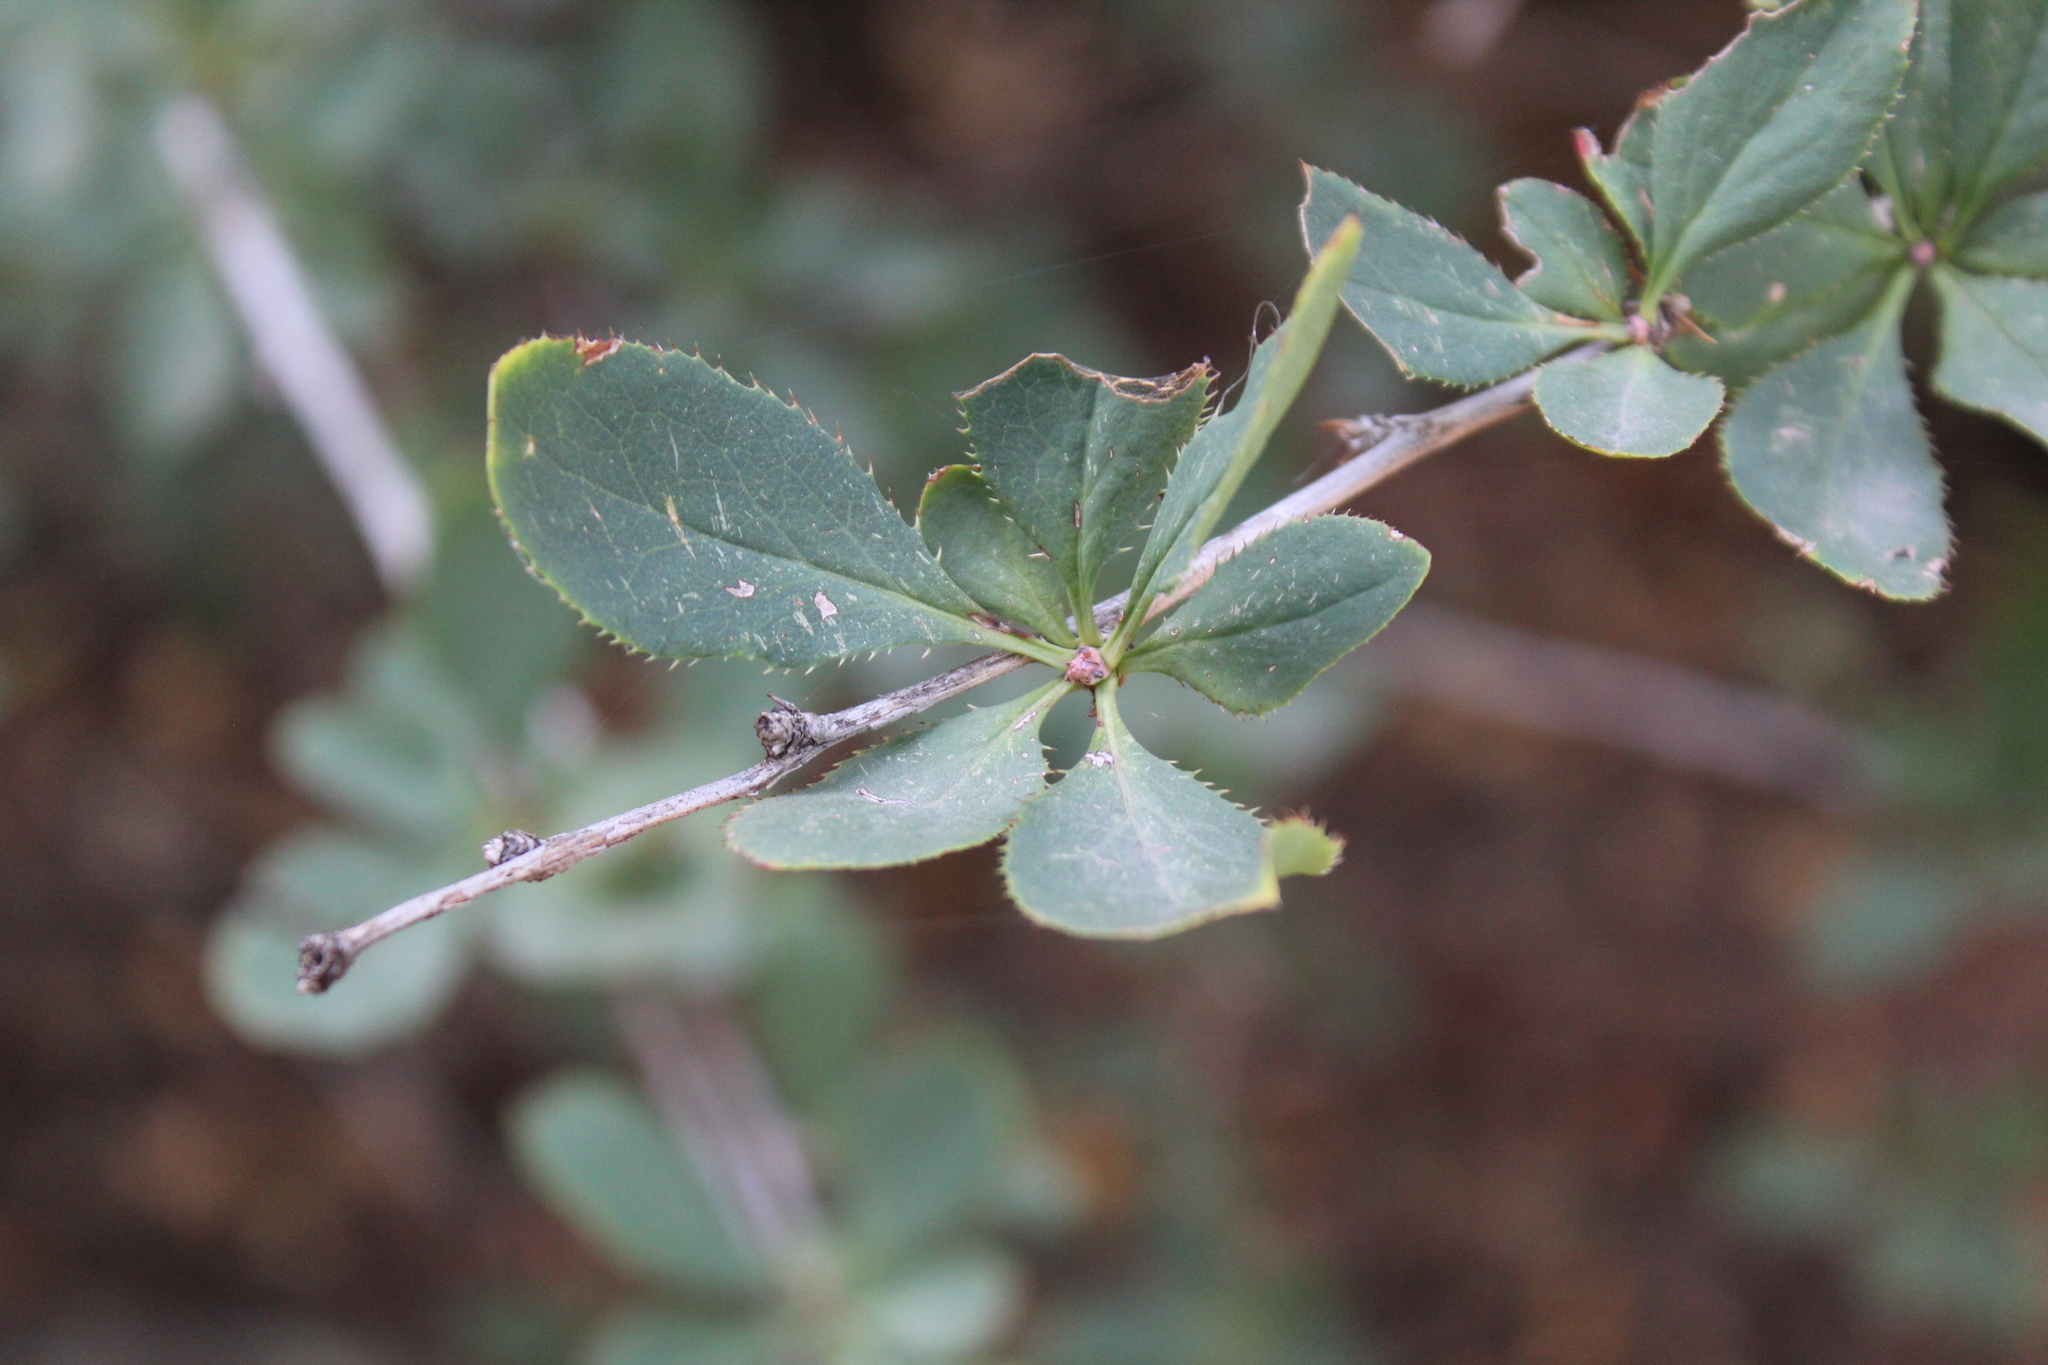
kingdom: Plantae
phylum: Tracheophyta
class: Magnoliopsida
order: Ranunculales
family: Berberidaceae
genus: Berberis
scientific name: Berberis vulgaris
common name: Barberry
